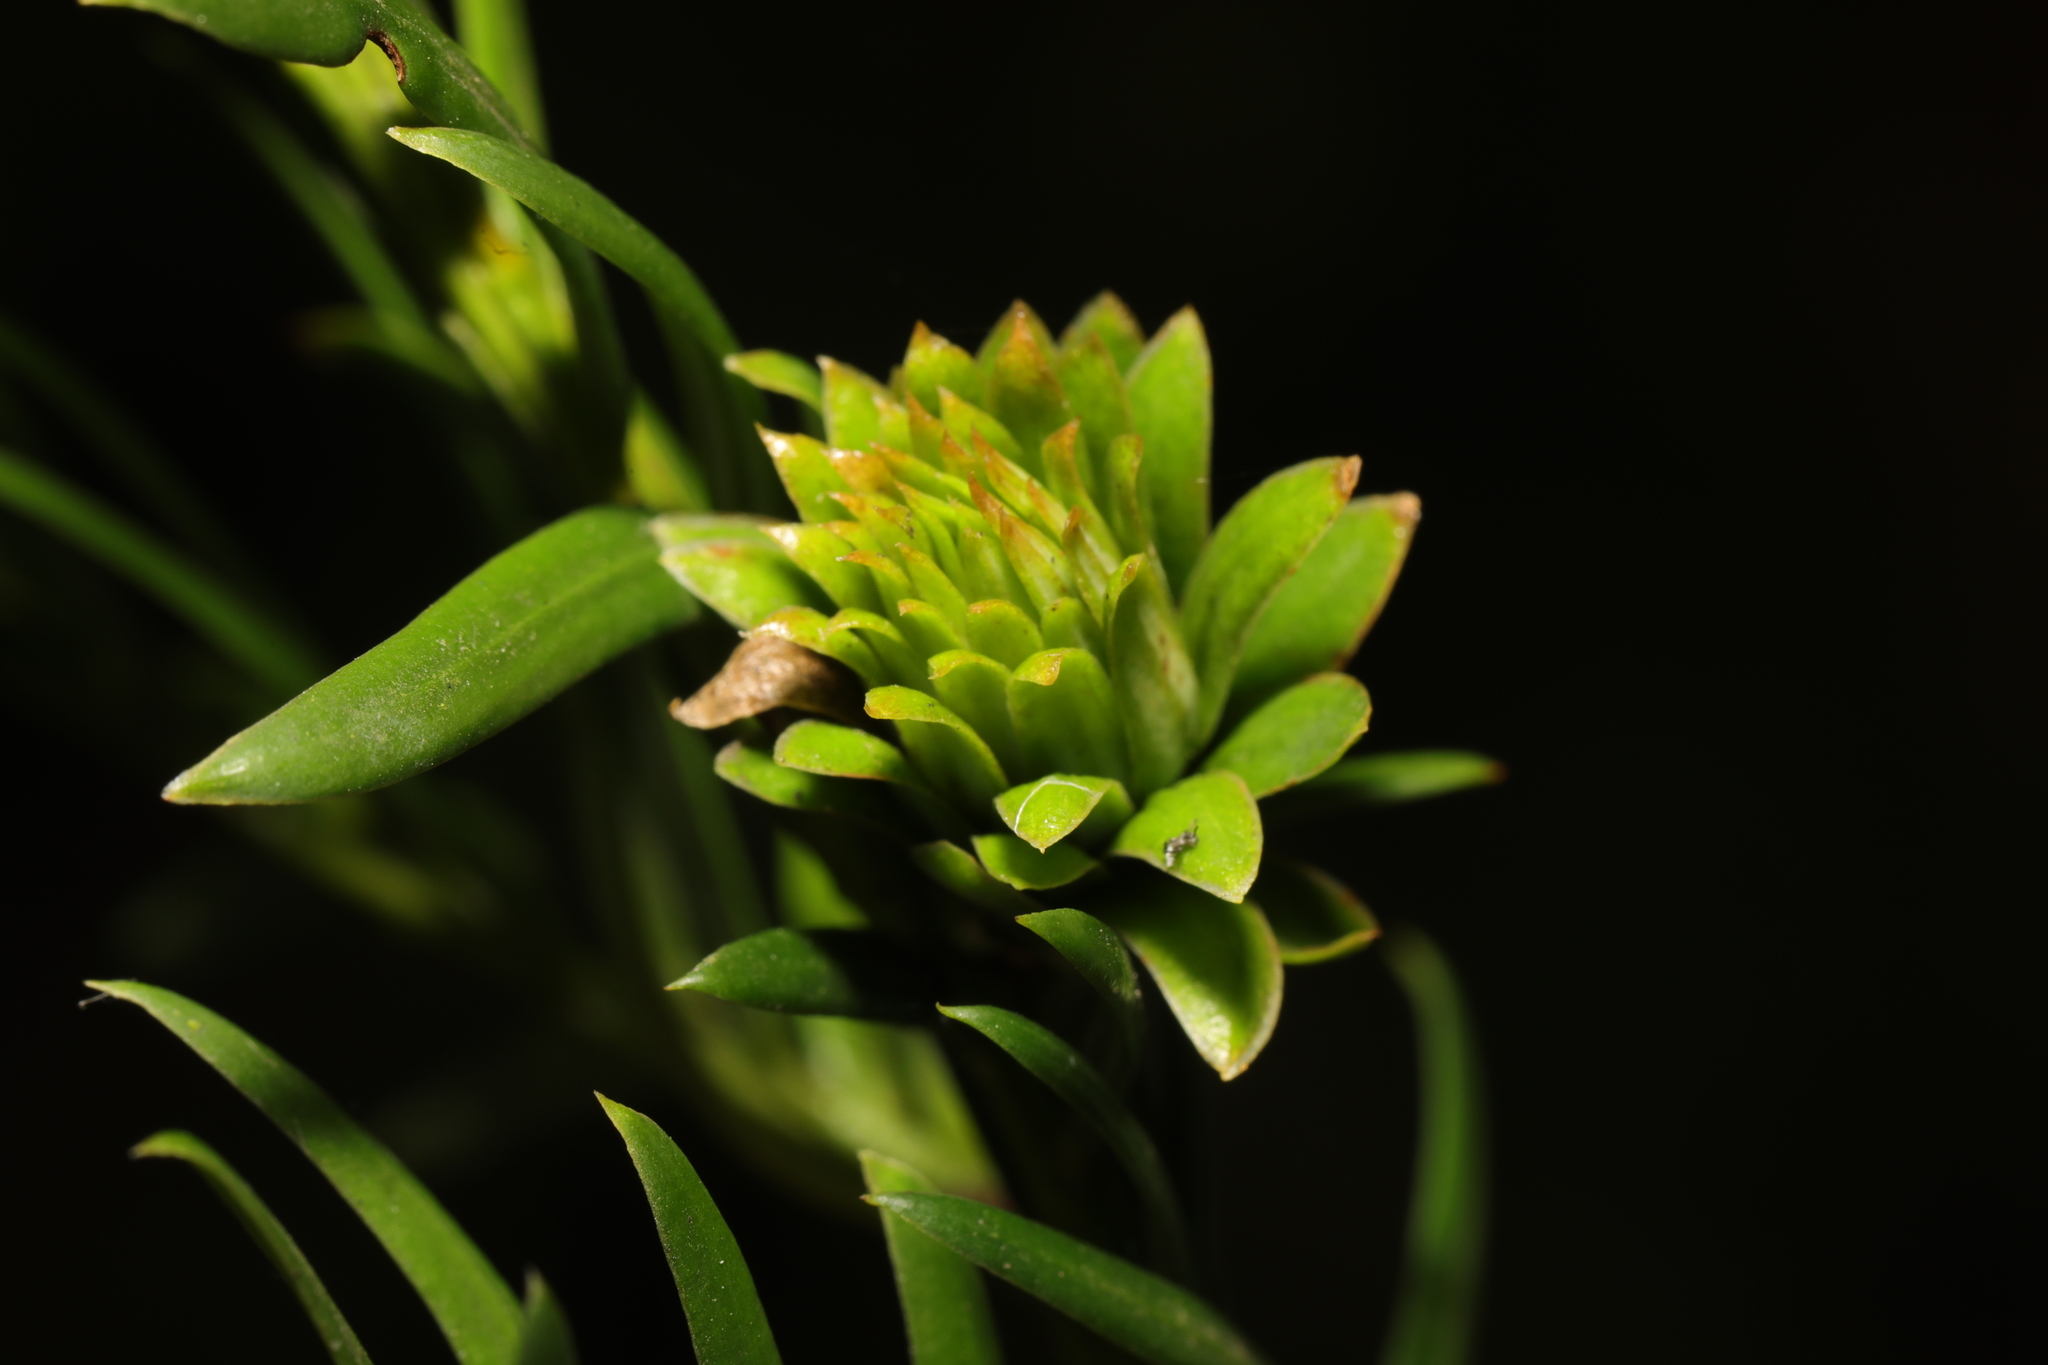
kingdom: Animalia
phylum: Arthropoda
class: Insecta
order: Diptera
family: Cecidomyiidae
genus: Taxomyia
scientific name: Taxomyia taxi
